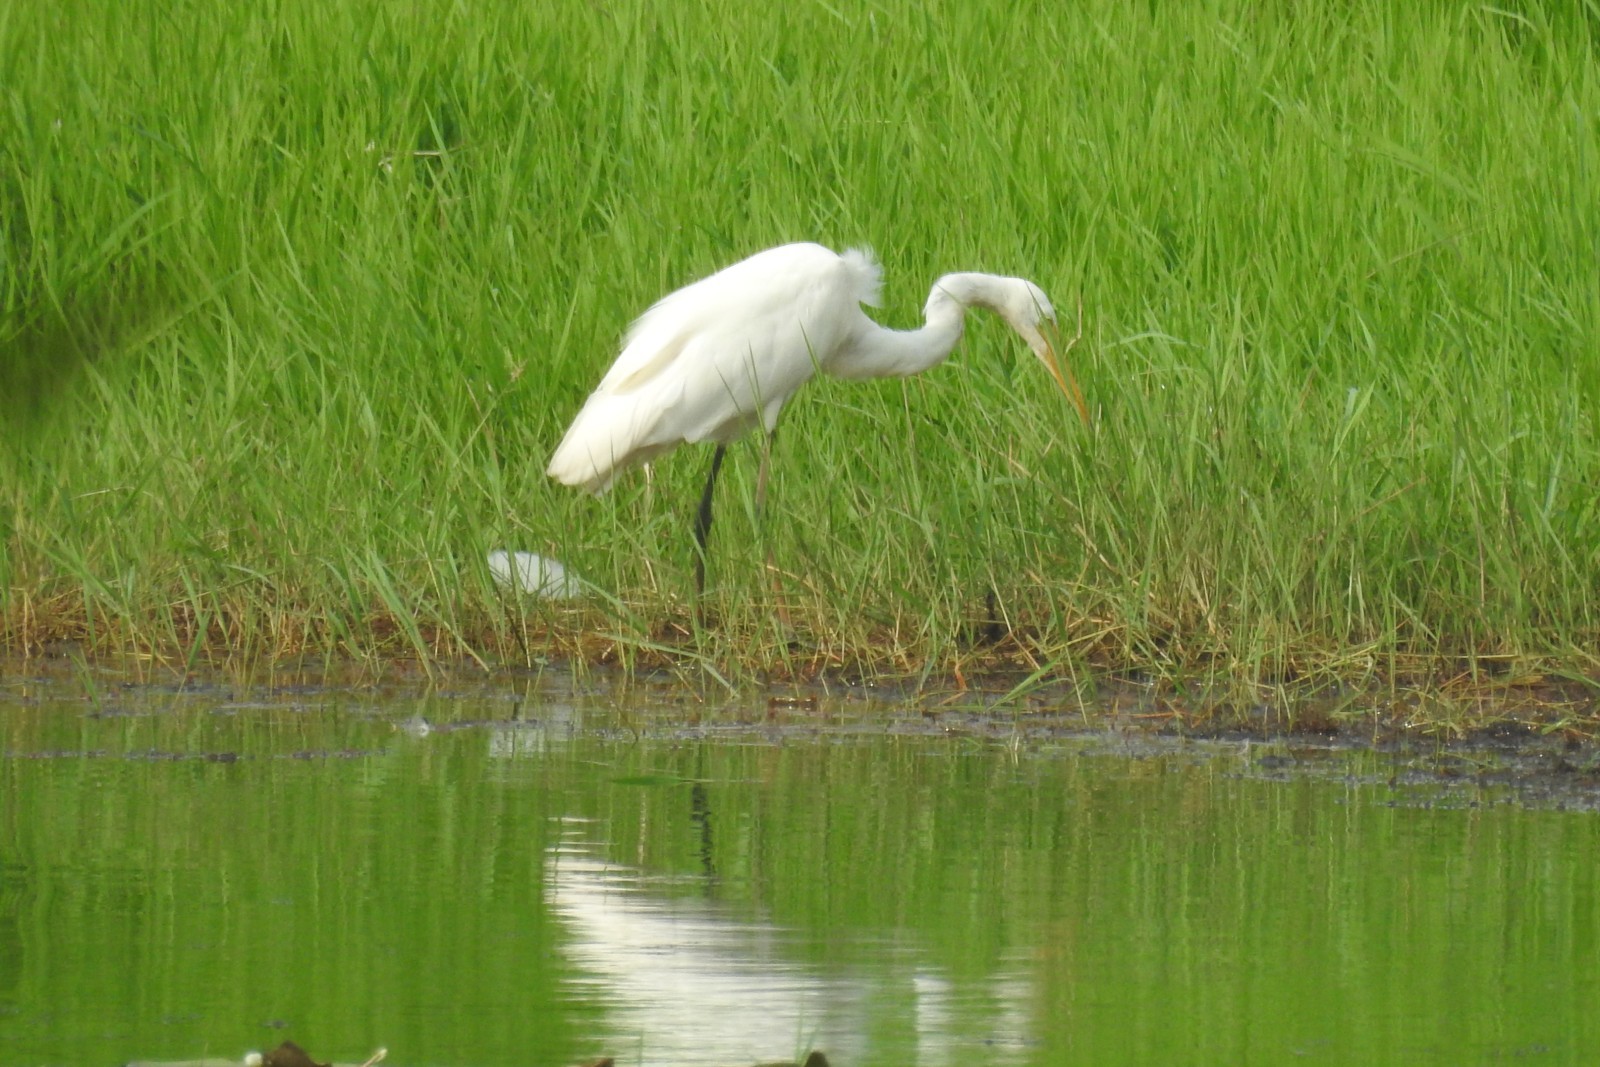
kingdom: Animalia
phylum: Chordata
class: Aves
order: Pelecaniformes
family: Ardeidae
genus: Ardea
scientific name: Ardea alba
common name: Great egret
